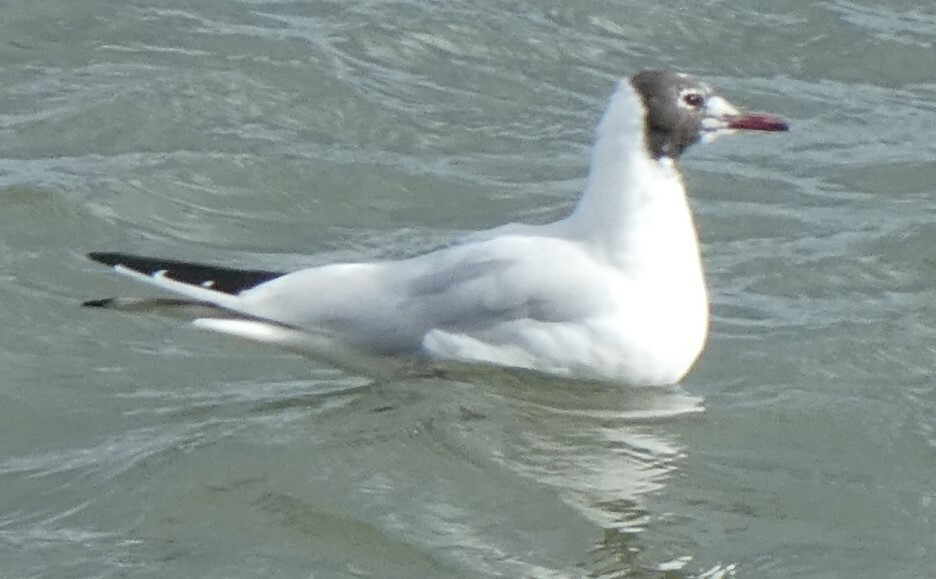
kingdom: Animalia
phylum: Chordata
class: Aves
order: Charadriiformes
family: Laridae
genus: Chroicocephalus
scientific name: Chroicocephalus ridibundus
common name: Black-headed gull
